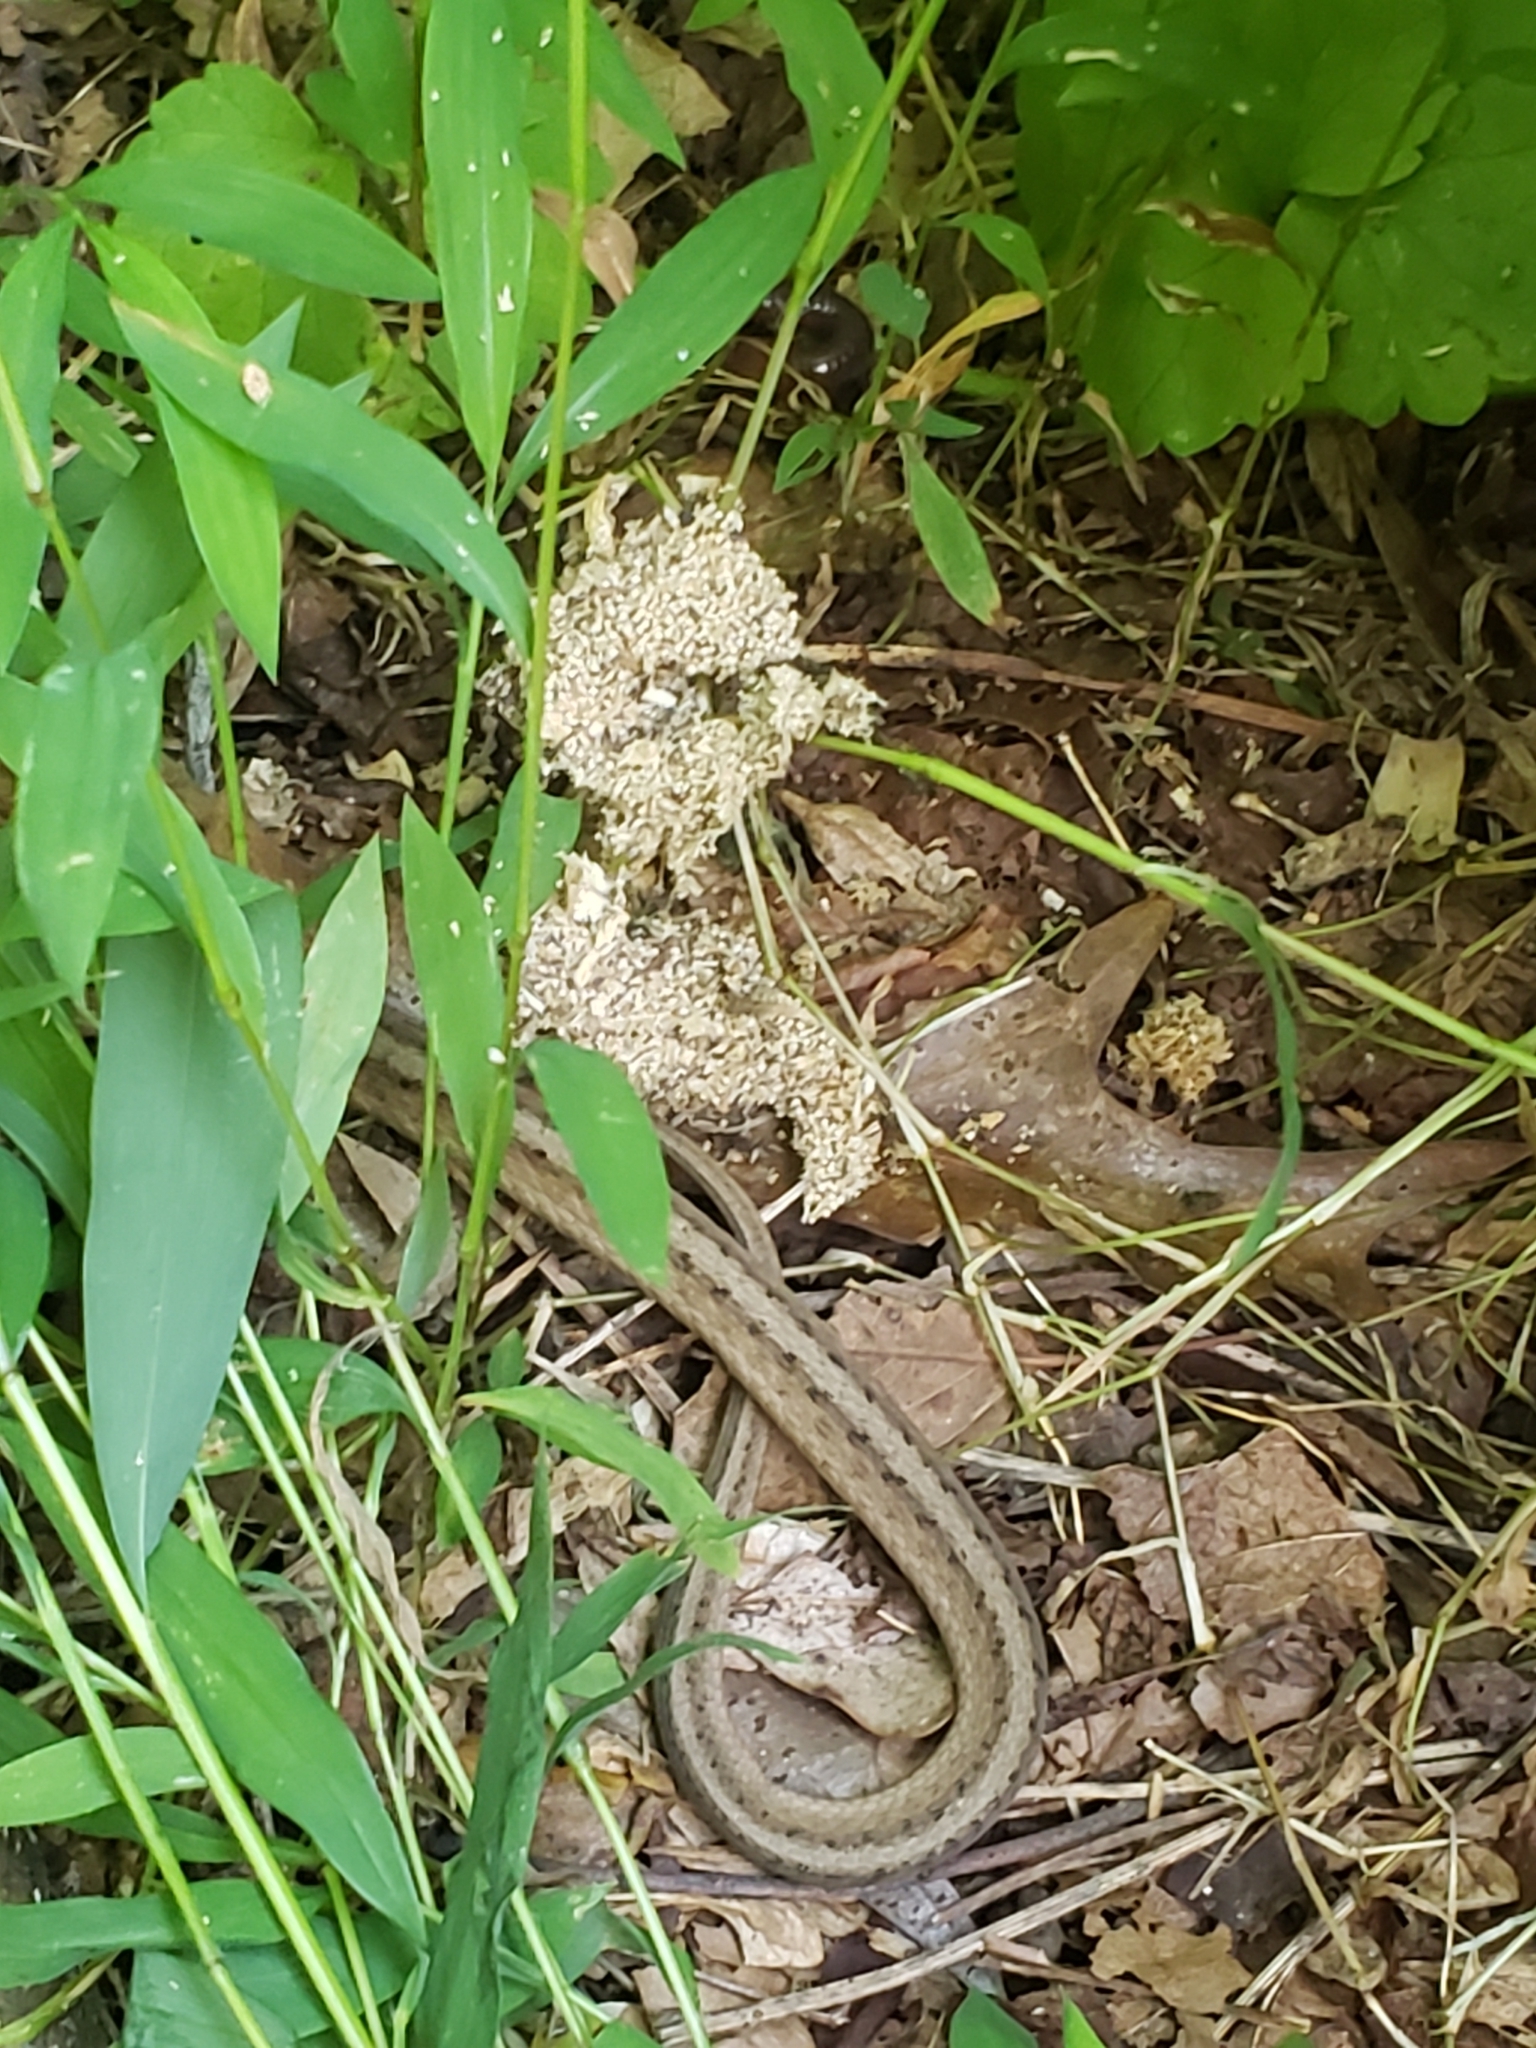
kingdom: Animalia
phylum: Chordata
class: Squamata
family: Colubridae
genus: Storeria
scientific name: Storeria dekayi
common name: (dekay’s) brown snake
